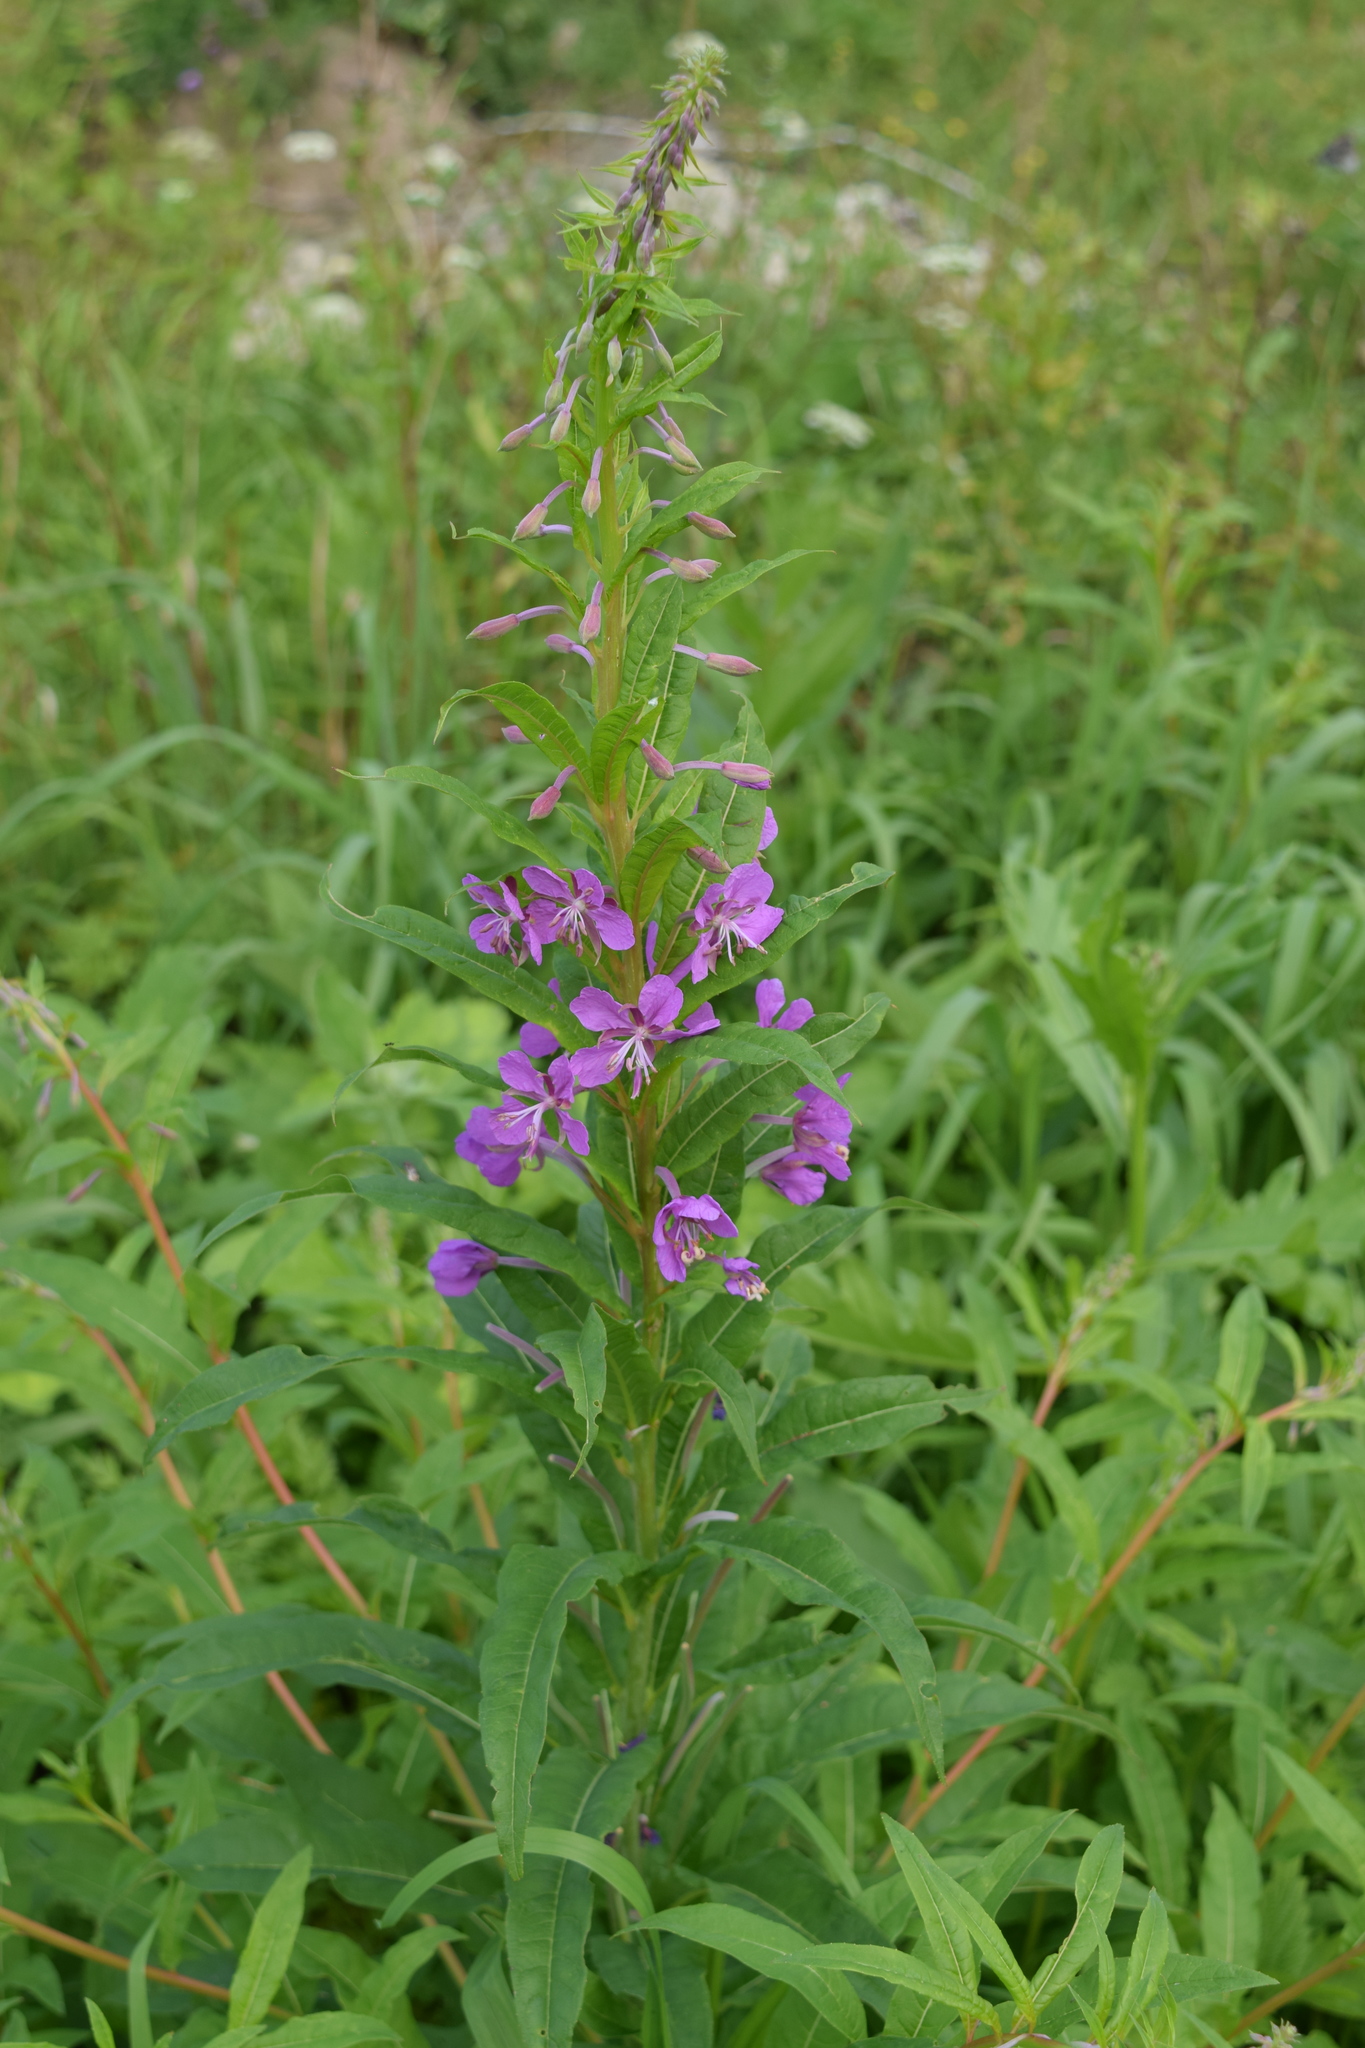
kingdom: Plantae
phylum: Tracheophyta
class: Magnoliopsida
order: Myrtales
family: Onagraceae
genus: Chamaenerion
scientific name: Chamaenerion angustifolium
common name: Fireweed
